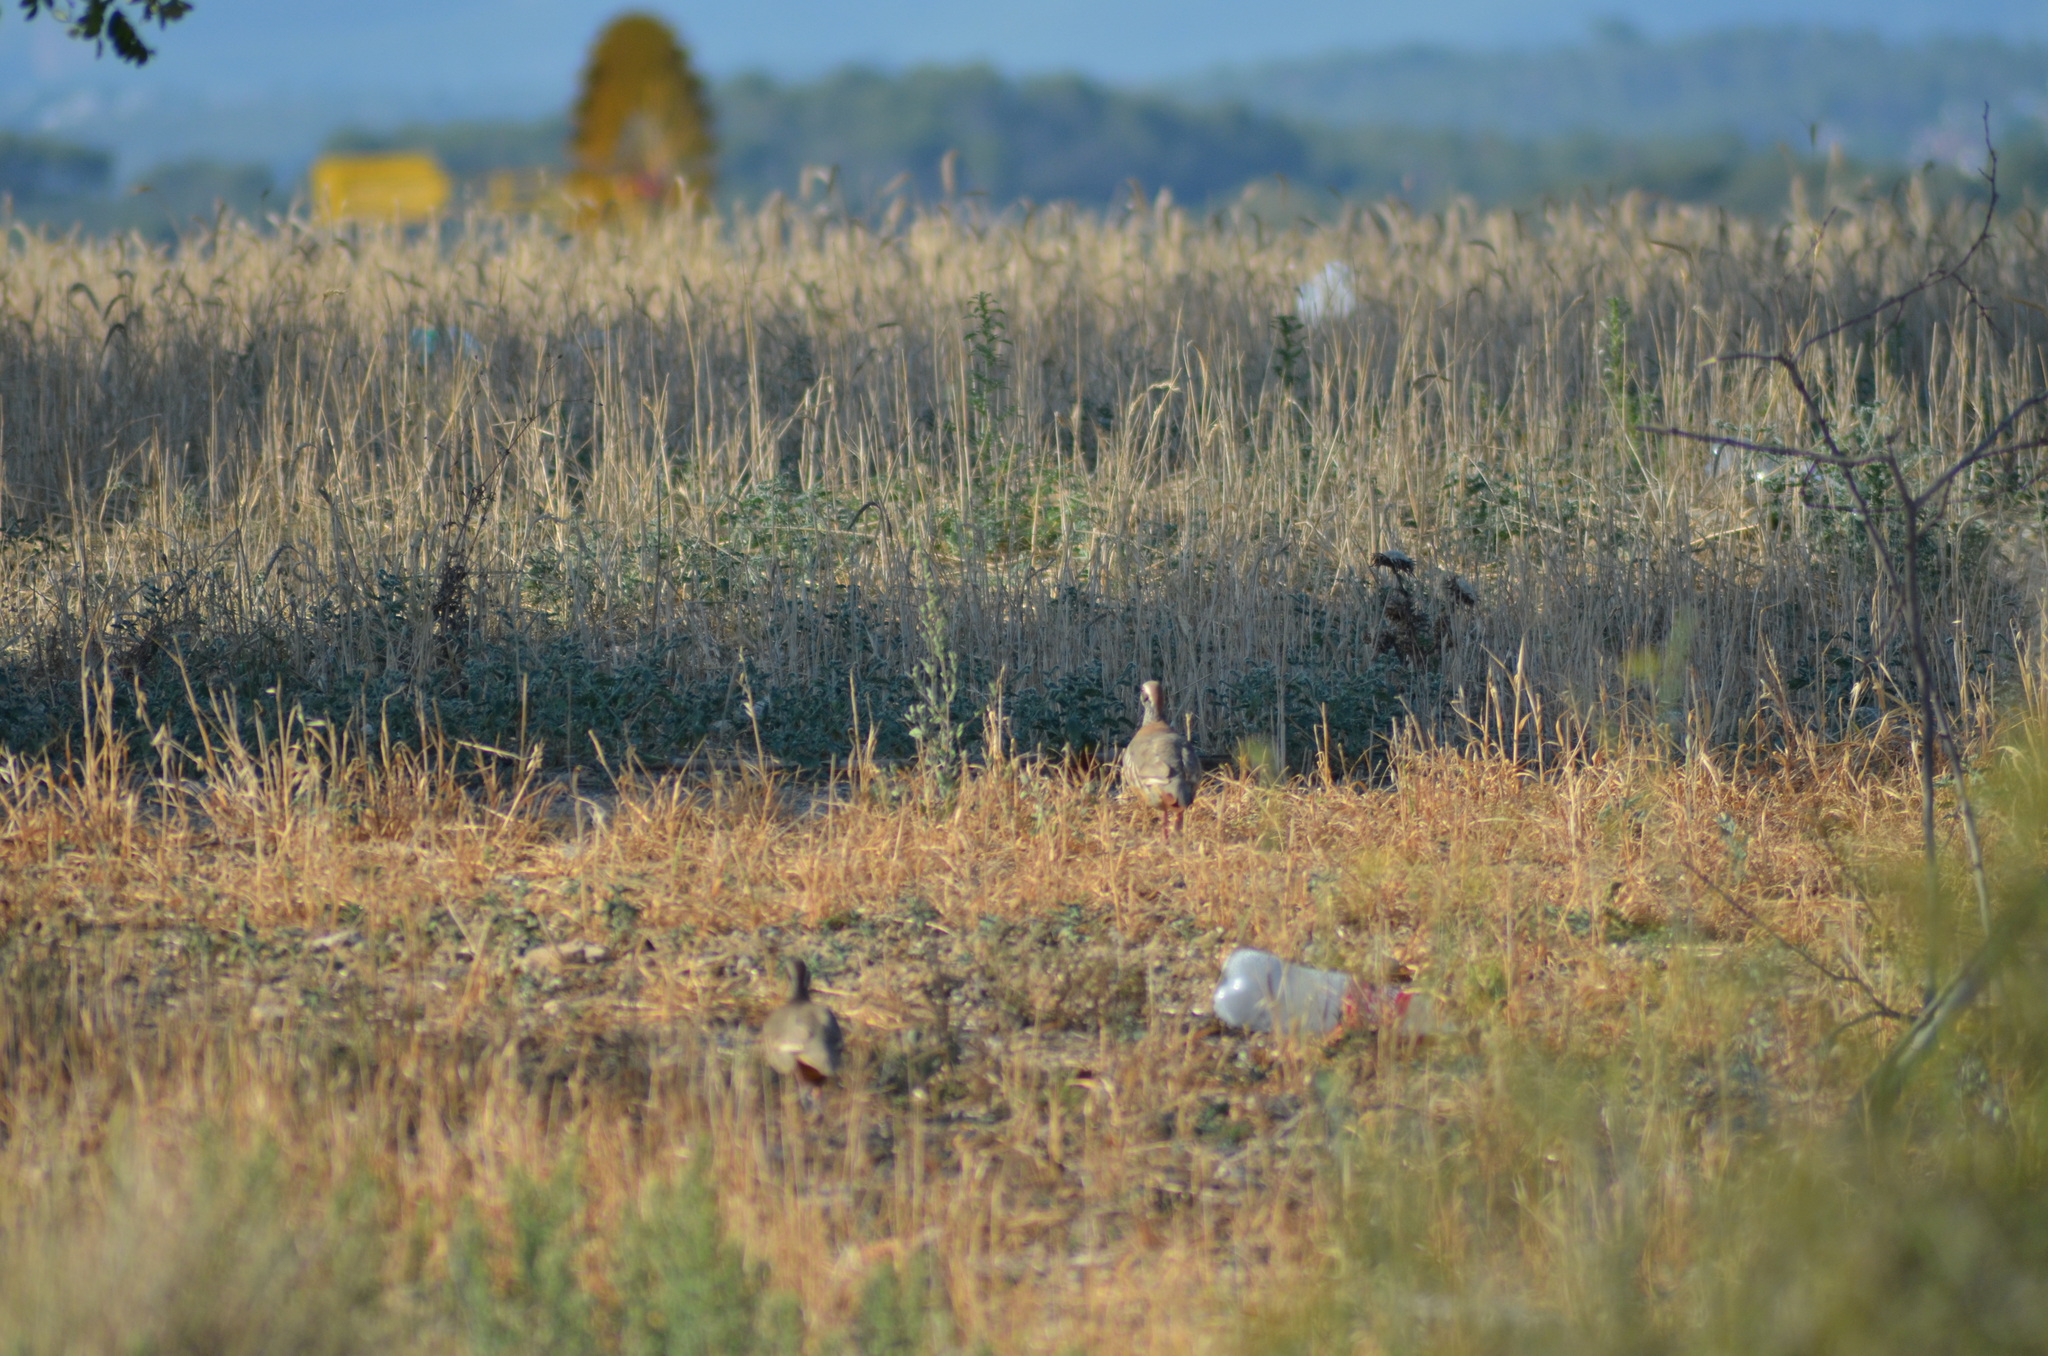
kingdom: Animalia
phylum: Chordata
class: Aves
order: Galliformes
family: Phasianidae
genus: Alectoris
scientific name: Alectoris rufa
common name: Red-legged partridge
